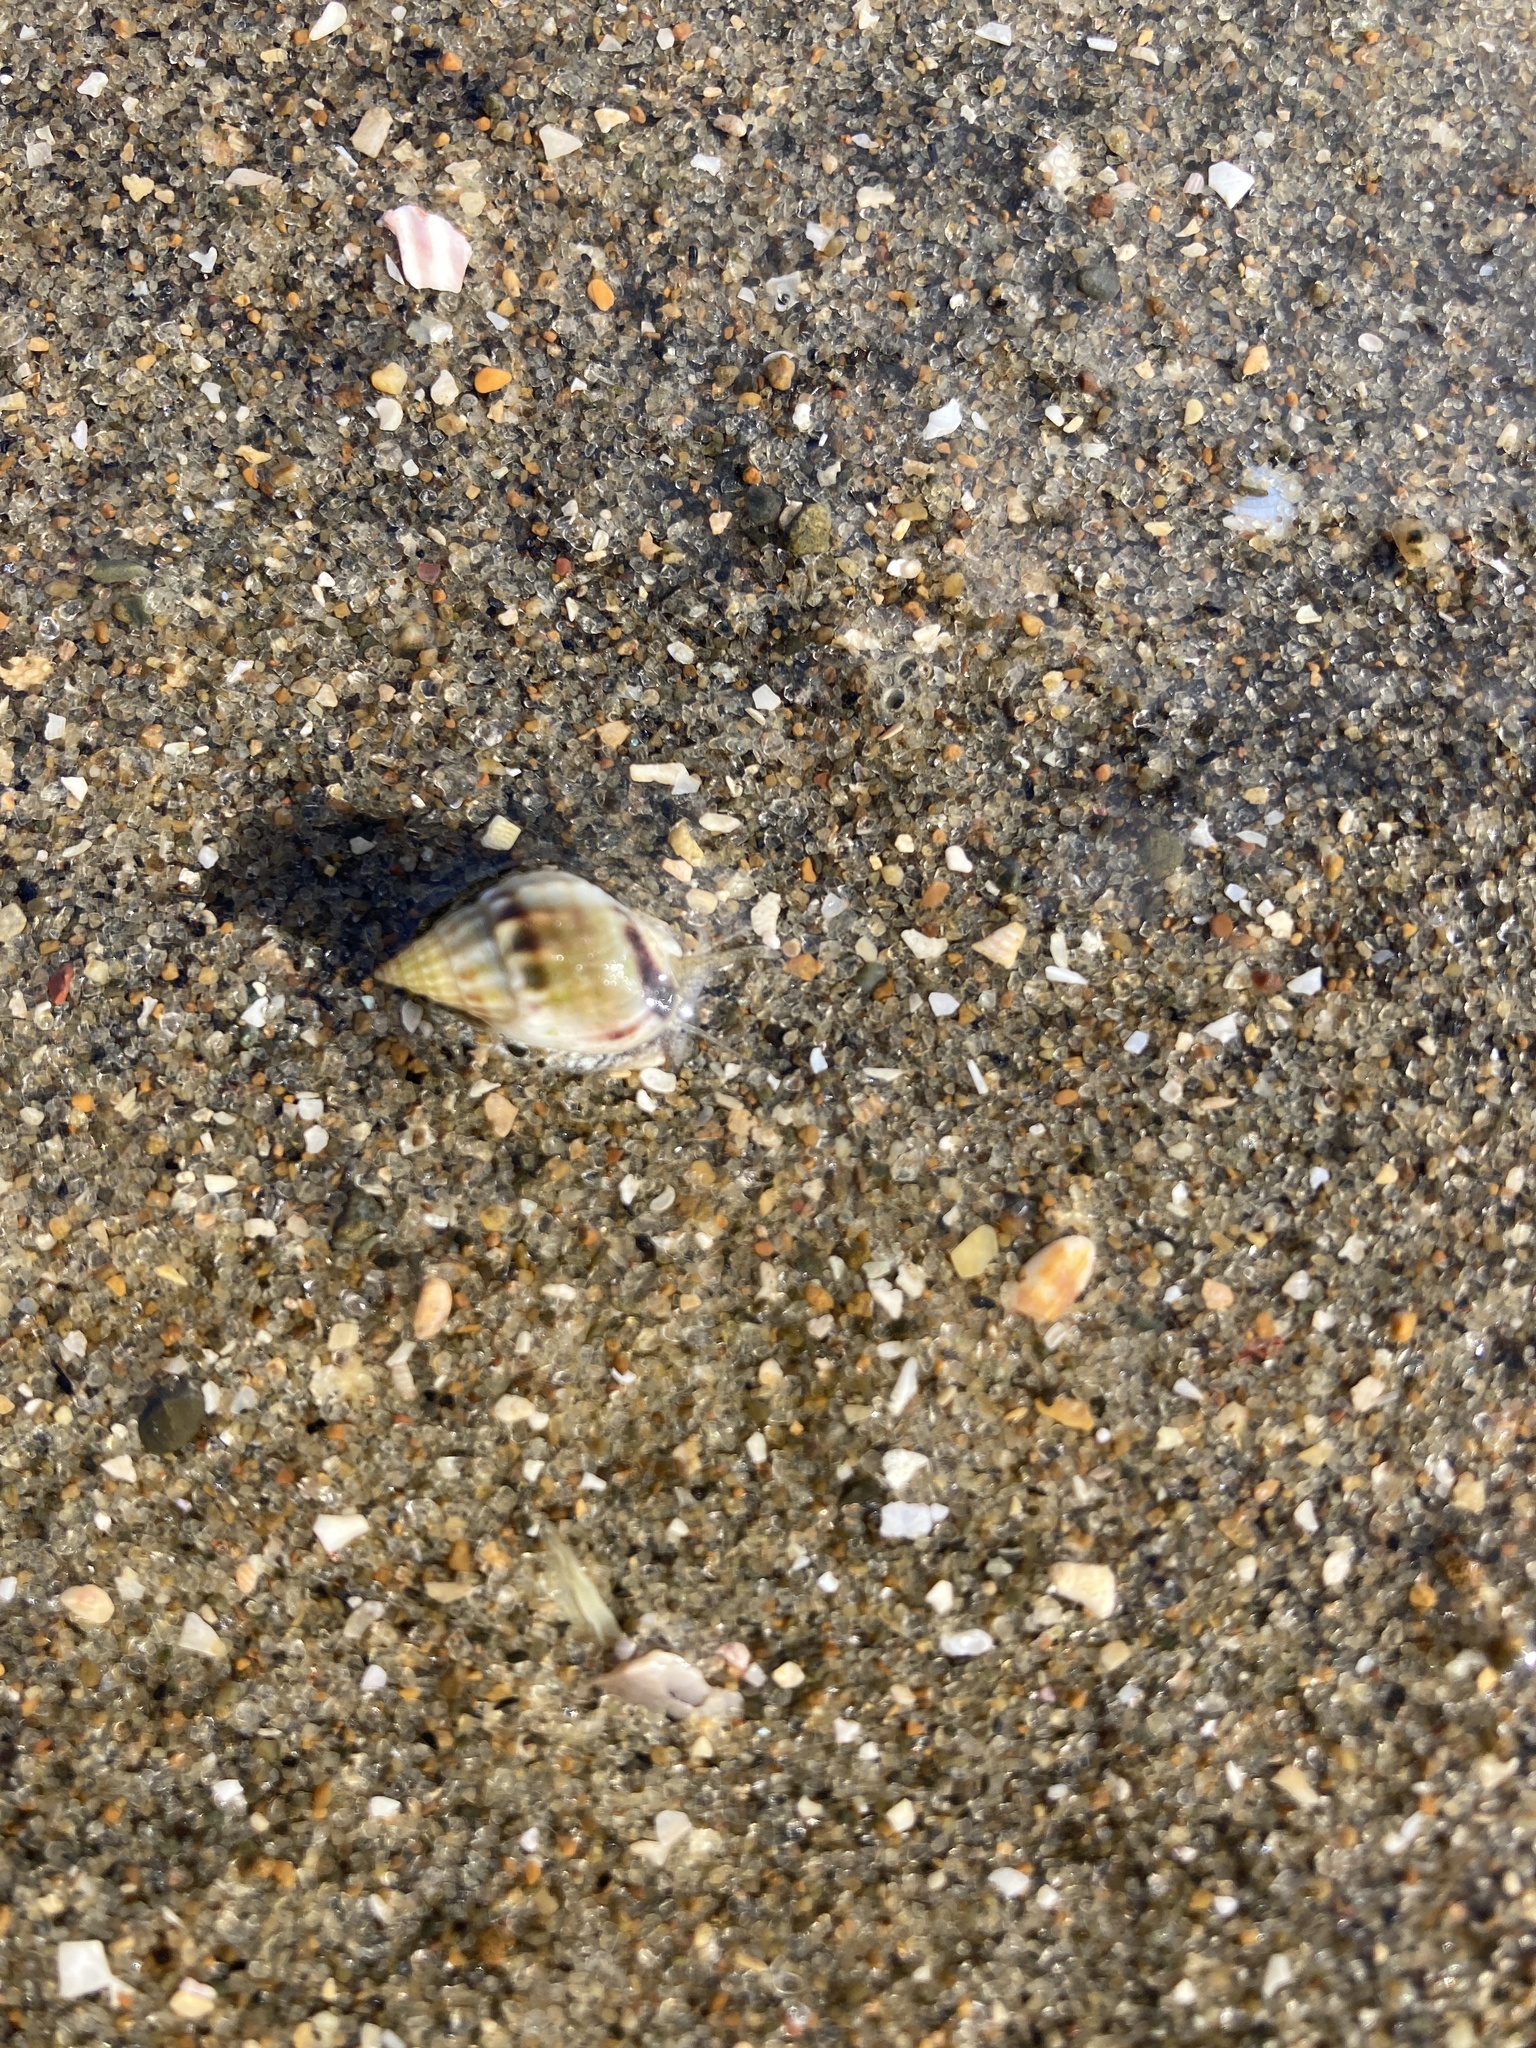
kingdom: Animalia
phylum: Mollusca
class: Gastropoda
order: Neogastropoda
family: Nassariidae
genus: Tritia
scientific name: Tritia burchardi
